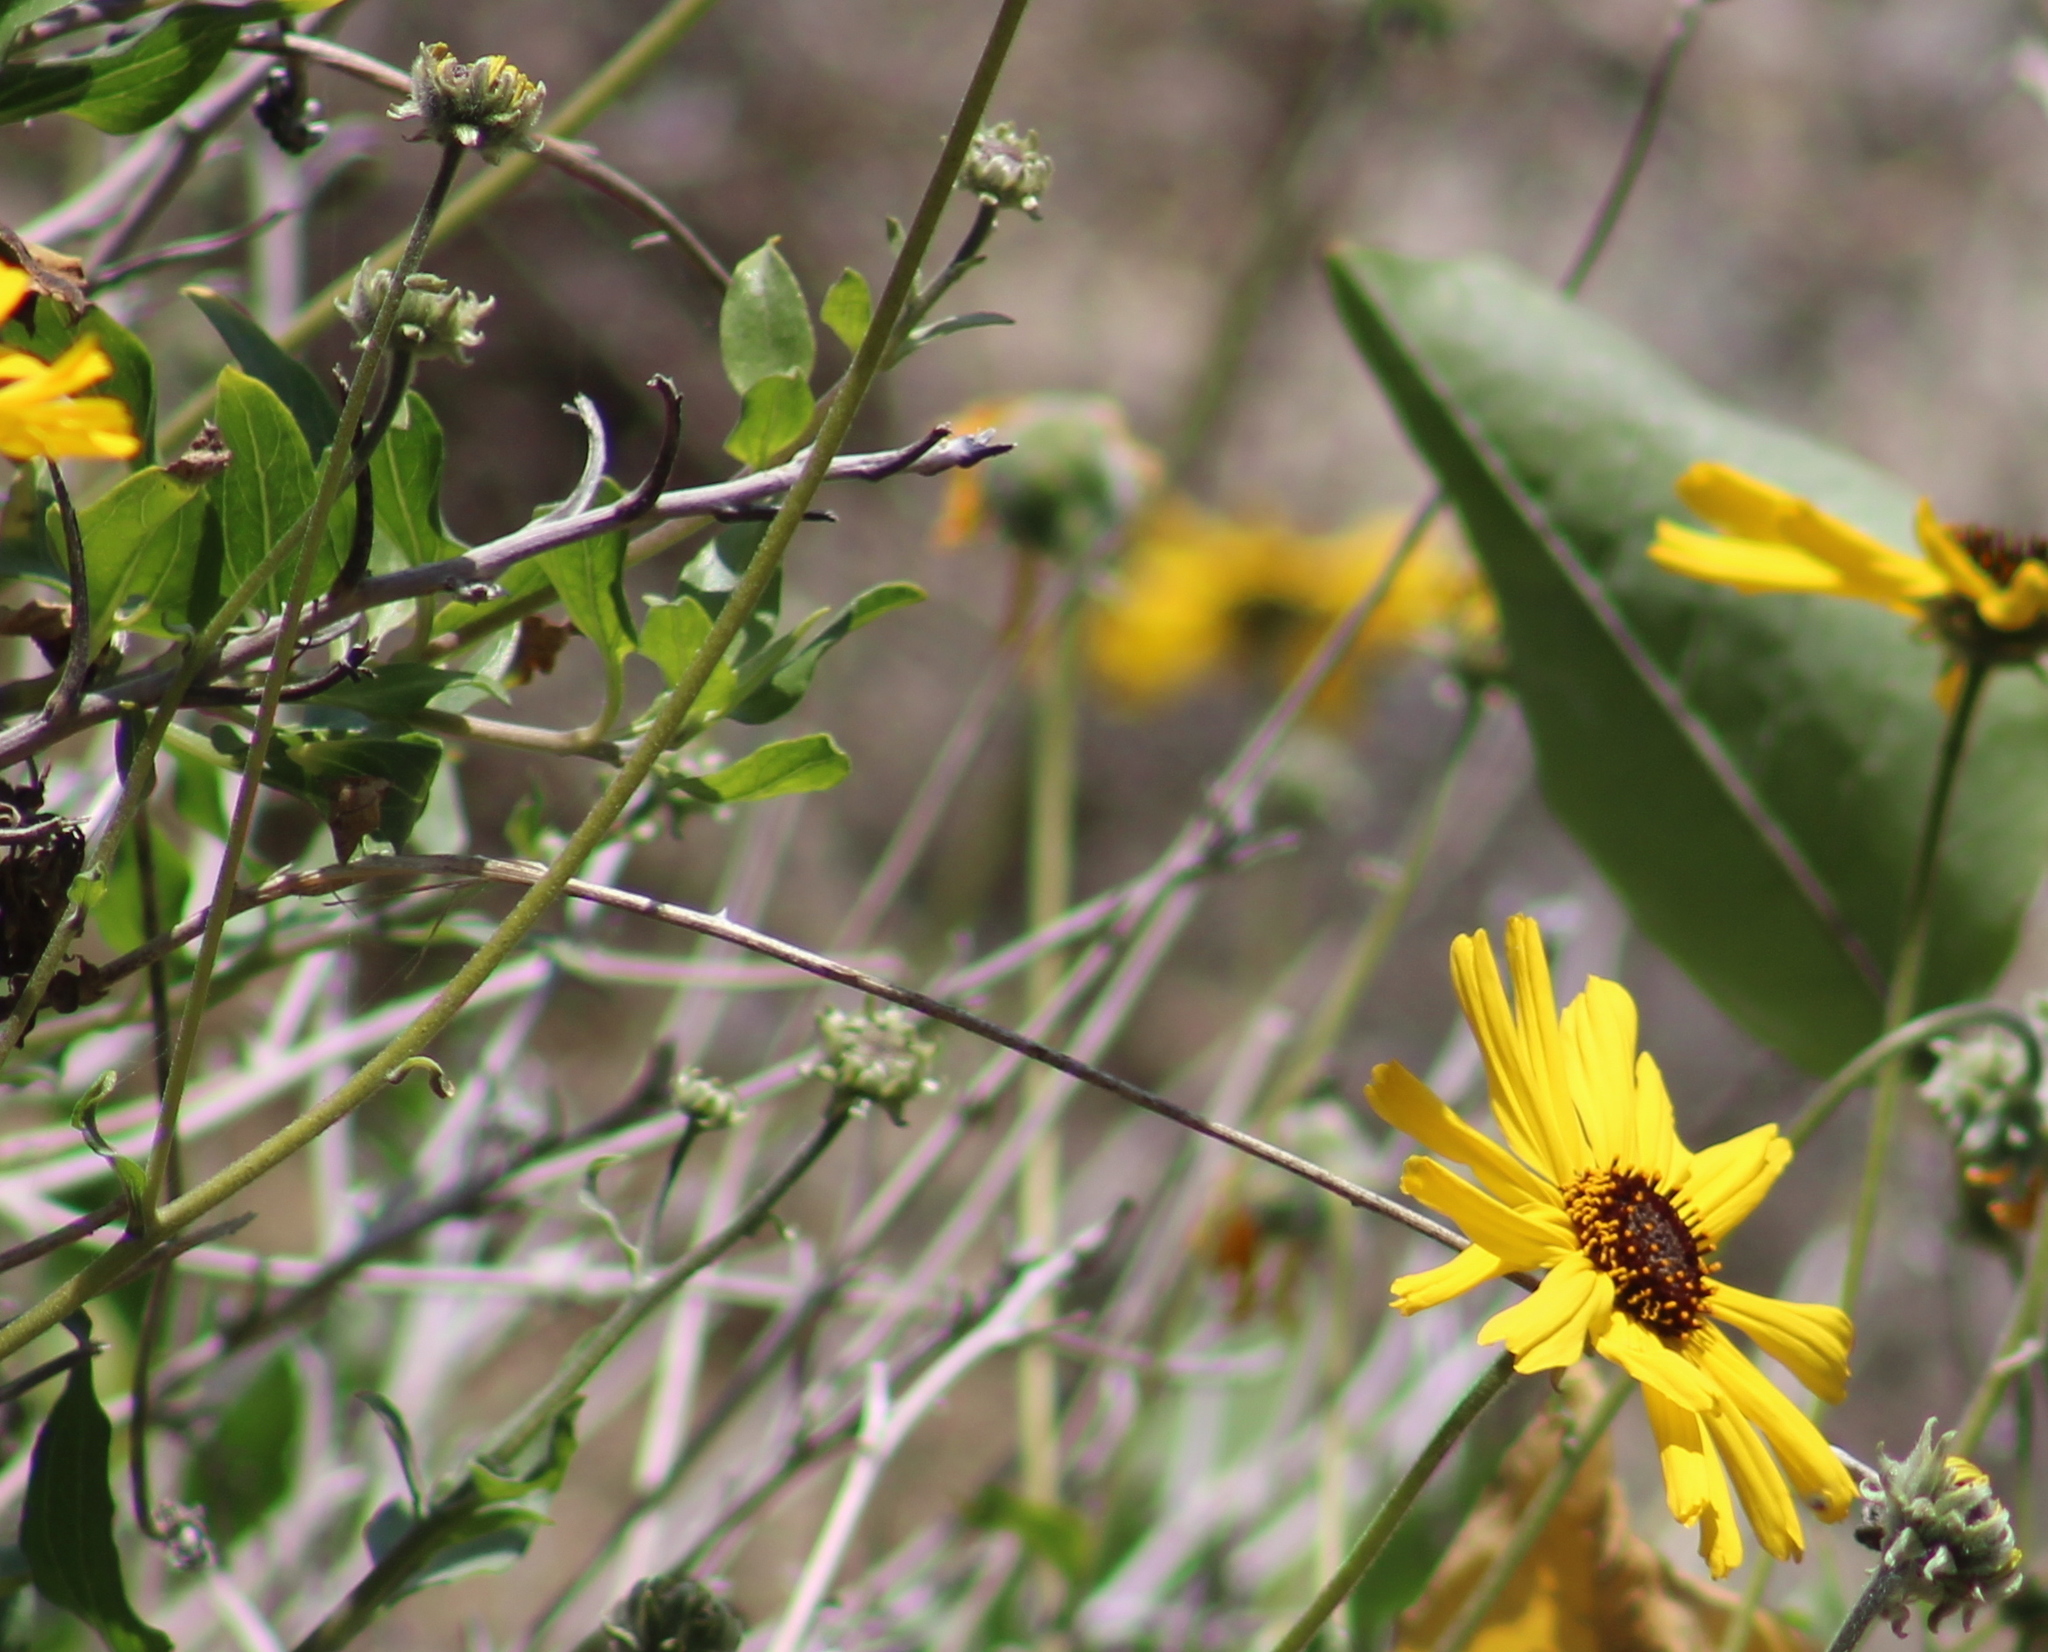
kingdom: Plantae
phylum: Tracheophyta
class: Magnoliopsida
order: Asterales
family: Asteraceae
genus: Encelia
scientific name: Encelia californica
